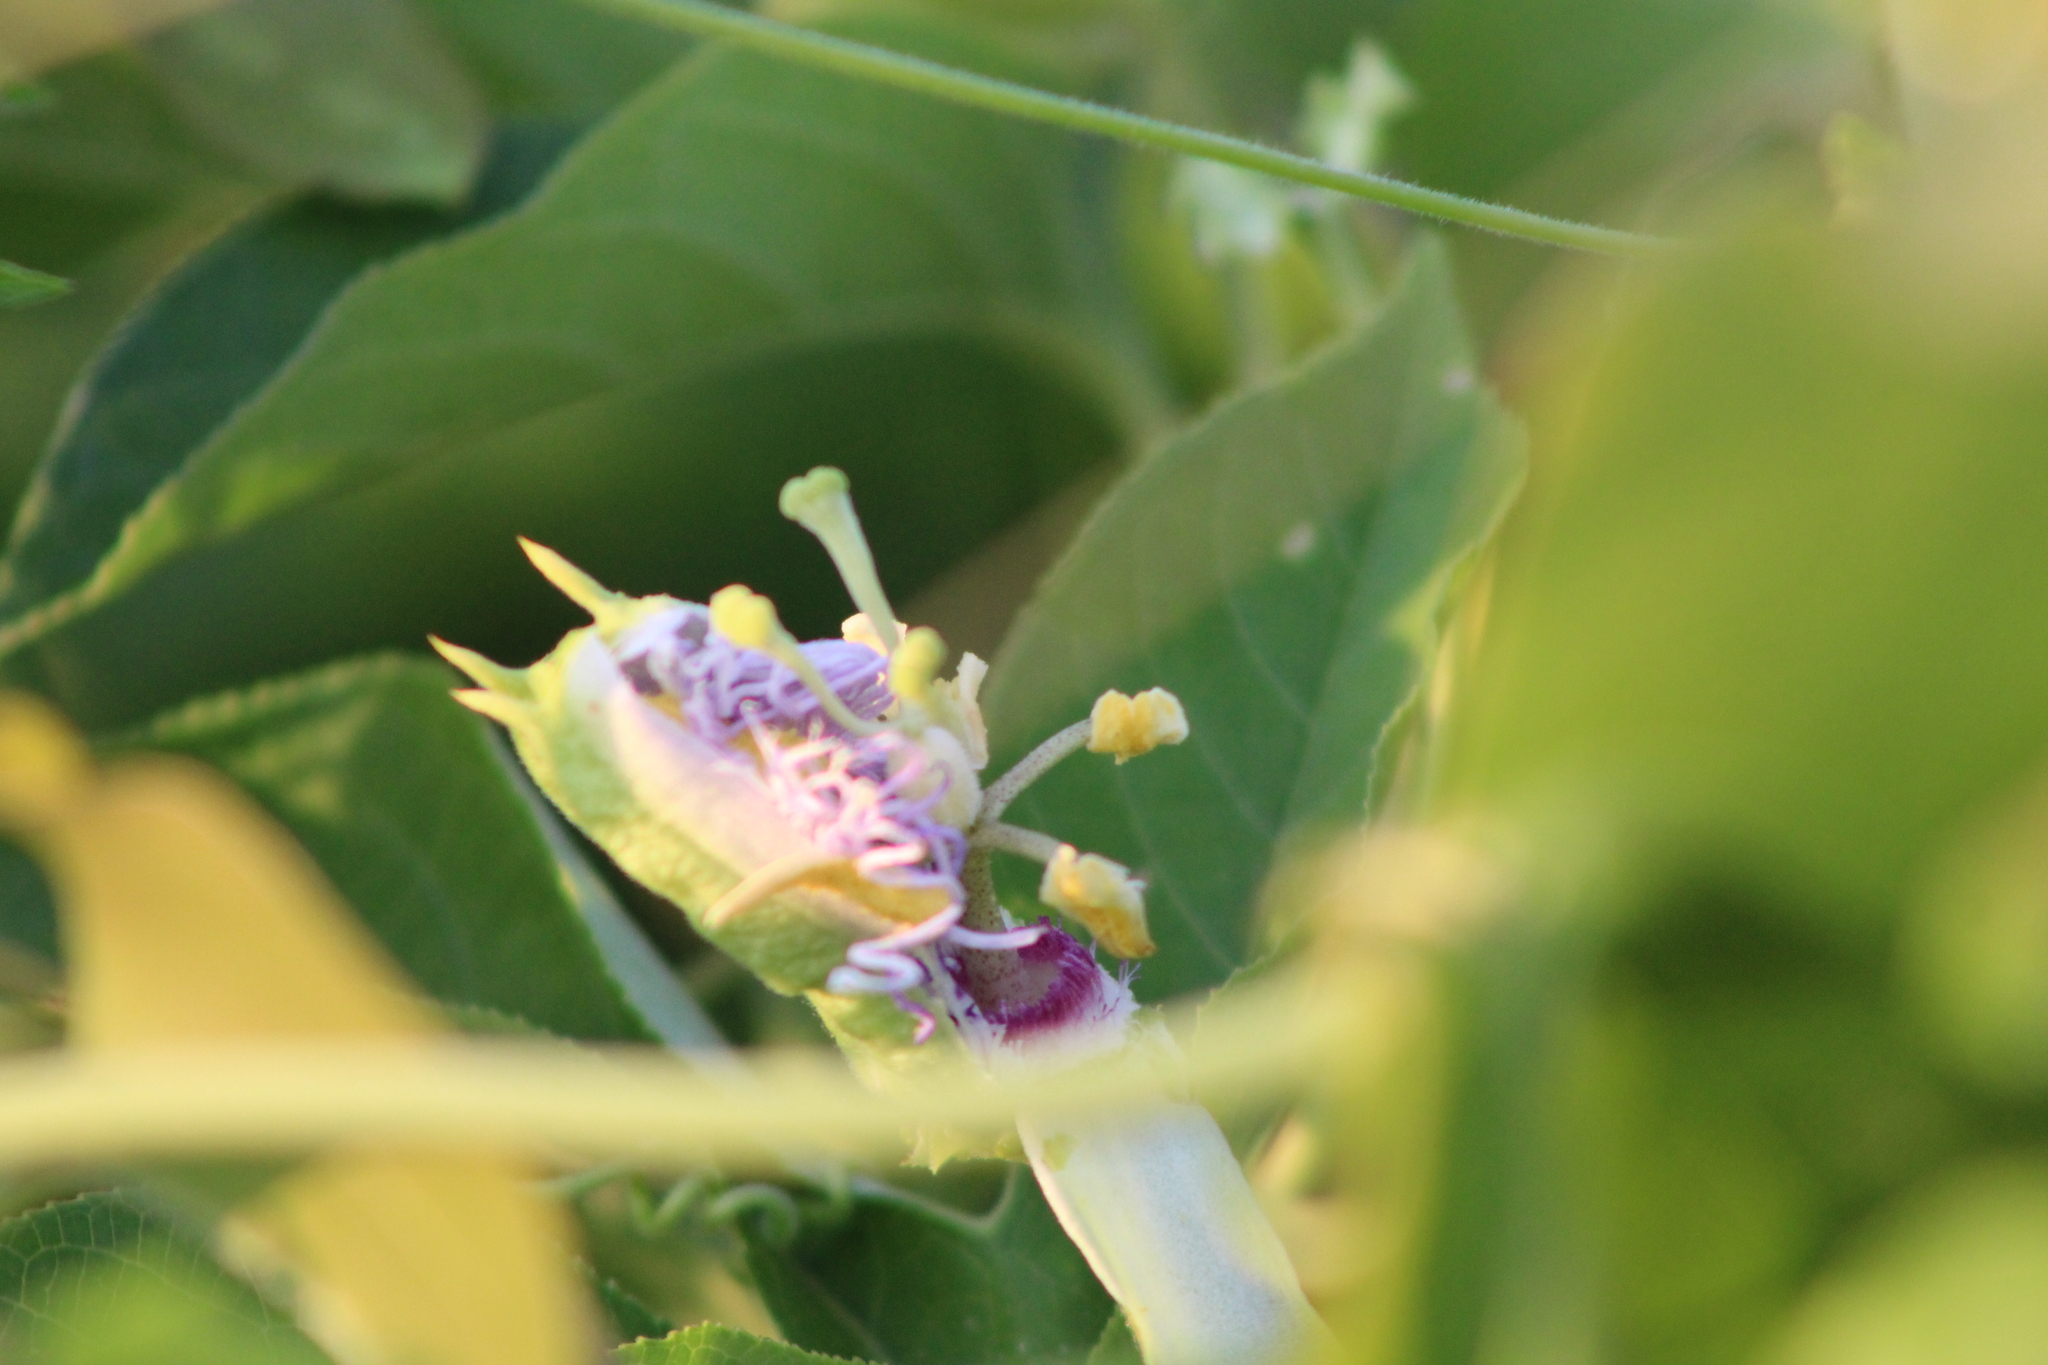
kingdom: Plantae
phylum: Tracheophyta
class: Magnoliopsida
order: Malpighiales
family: Passifloraceae
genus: Passiflora
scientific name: Passiflora incarnata
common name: Apricot-vine
